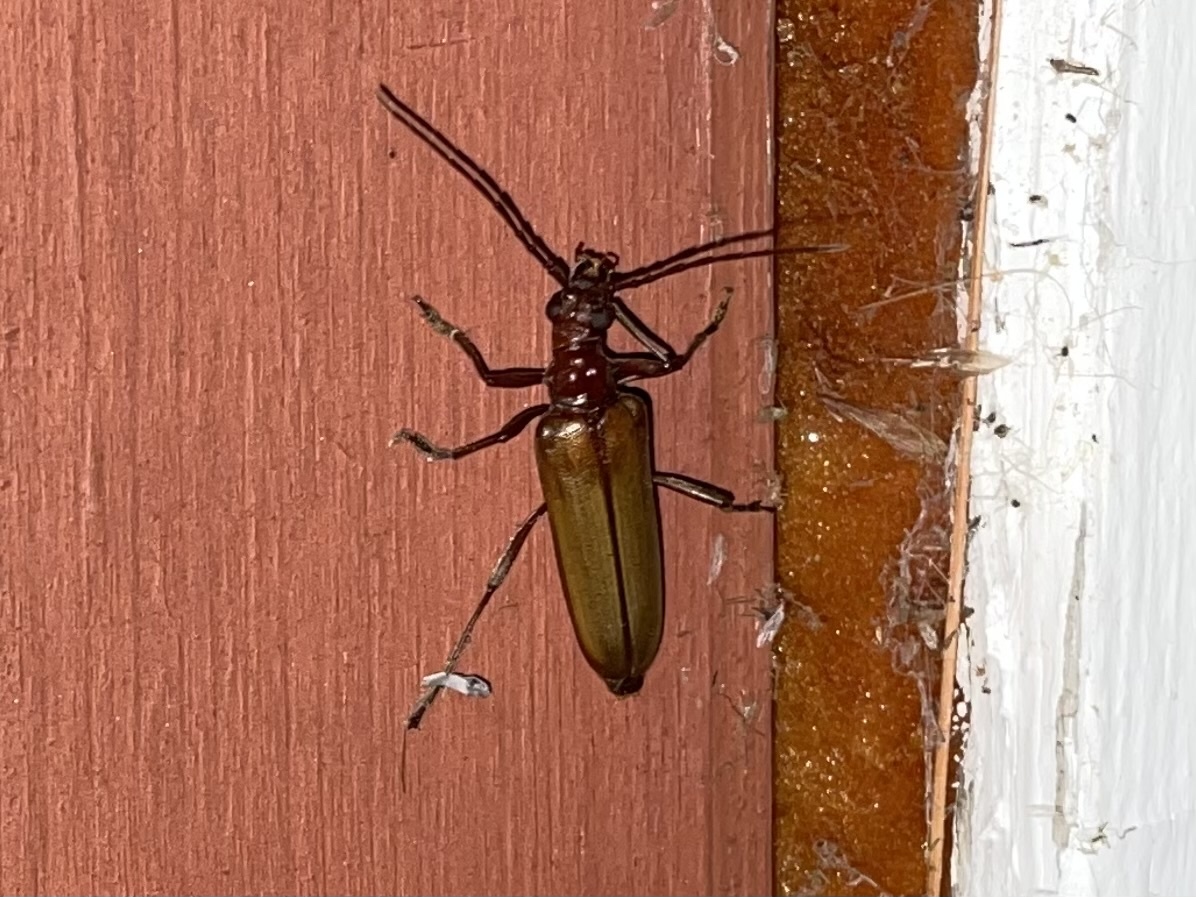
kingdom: Animalia
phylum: Arthropoda
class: Insecta
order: Coleoptera
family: Cerambycidae
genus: Centrodera
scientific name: Centrodera decolorata
